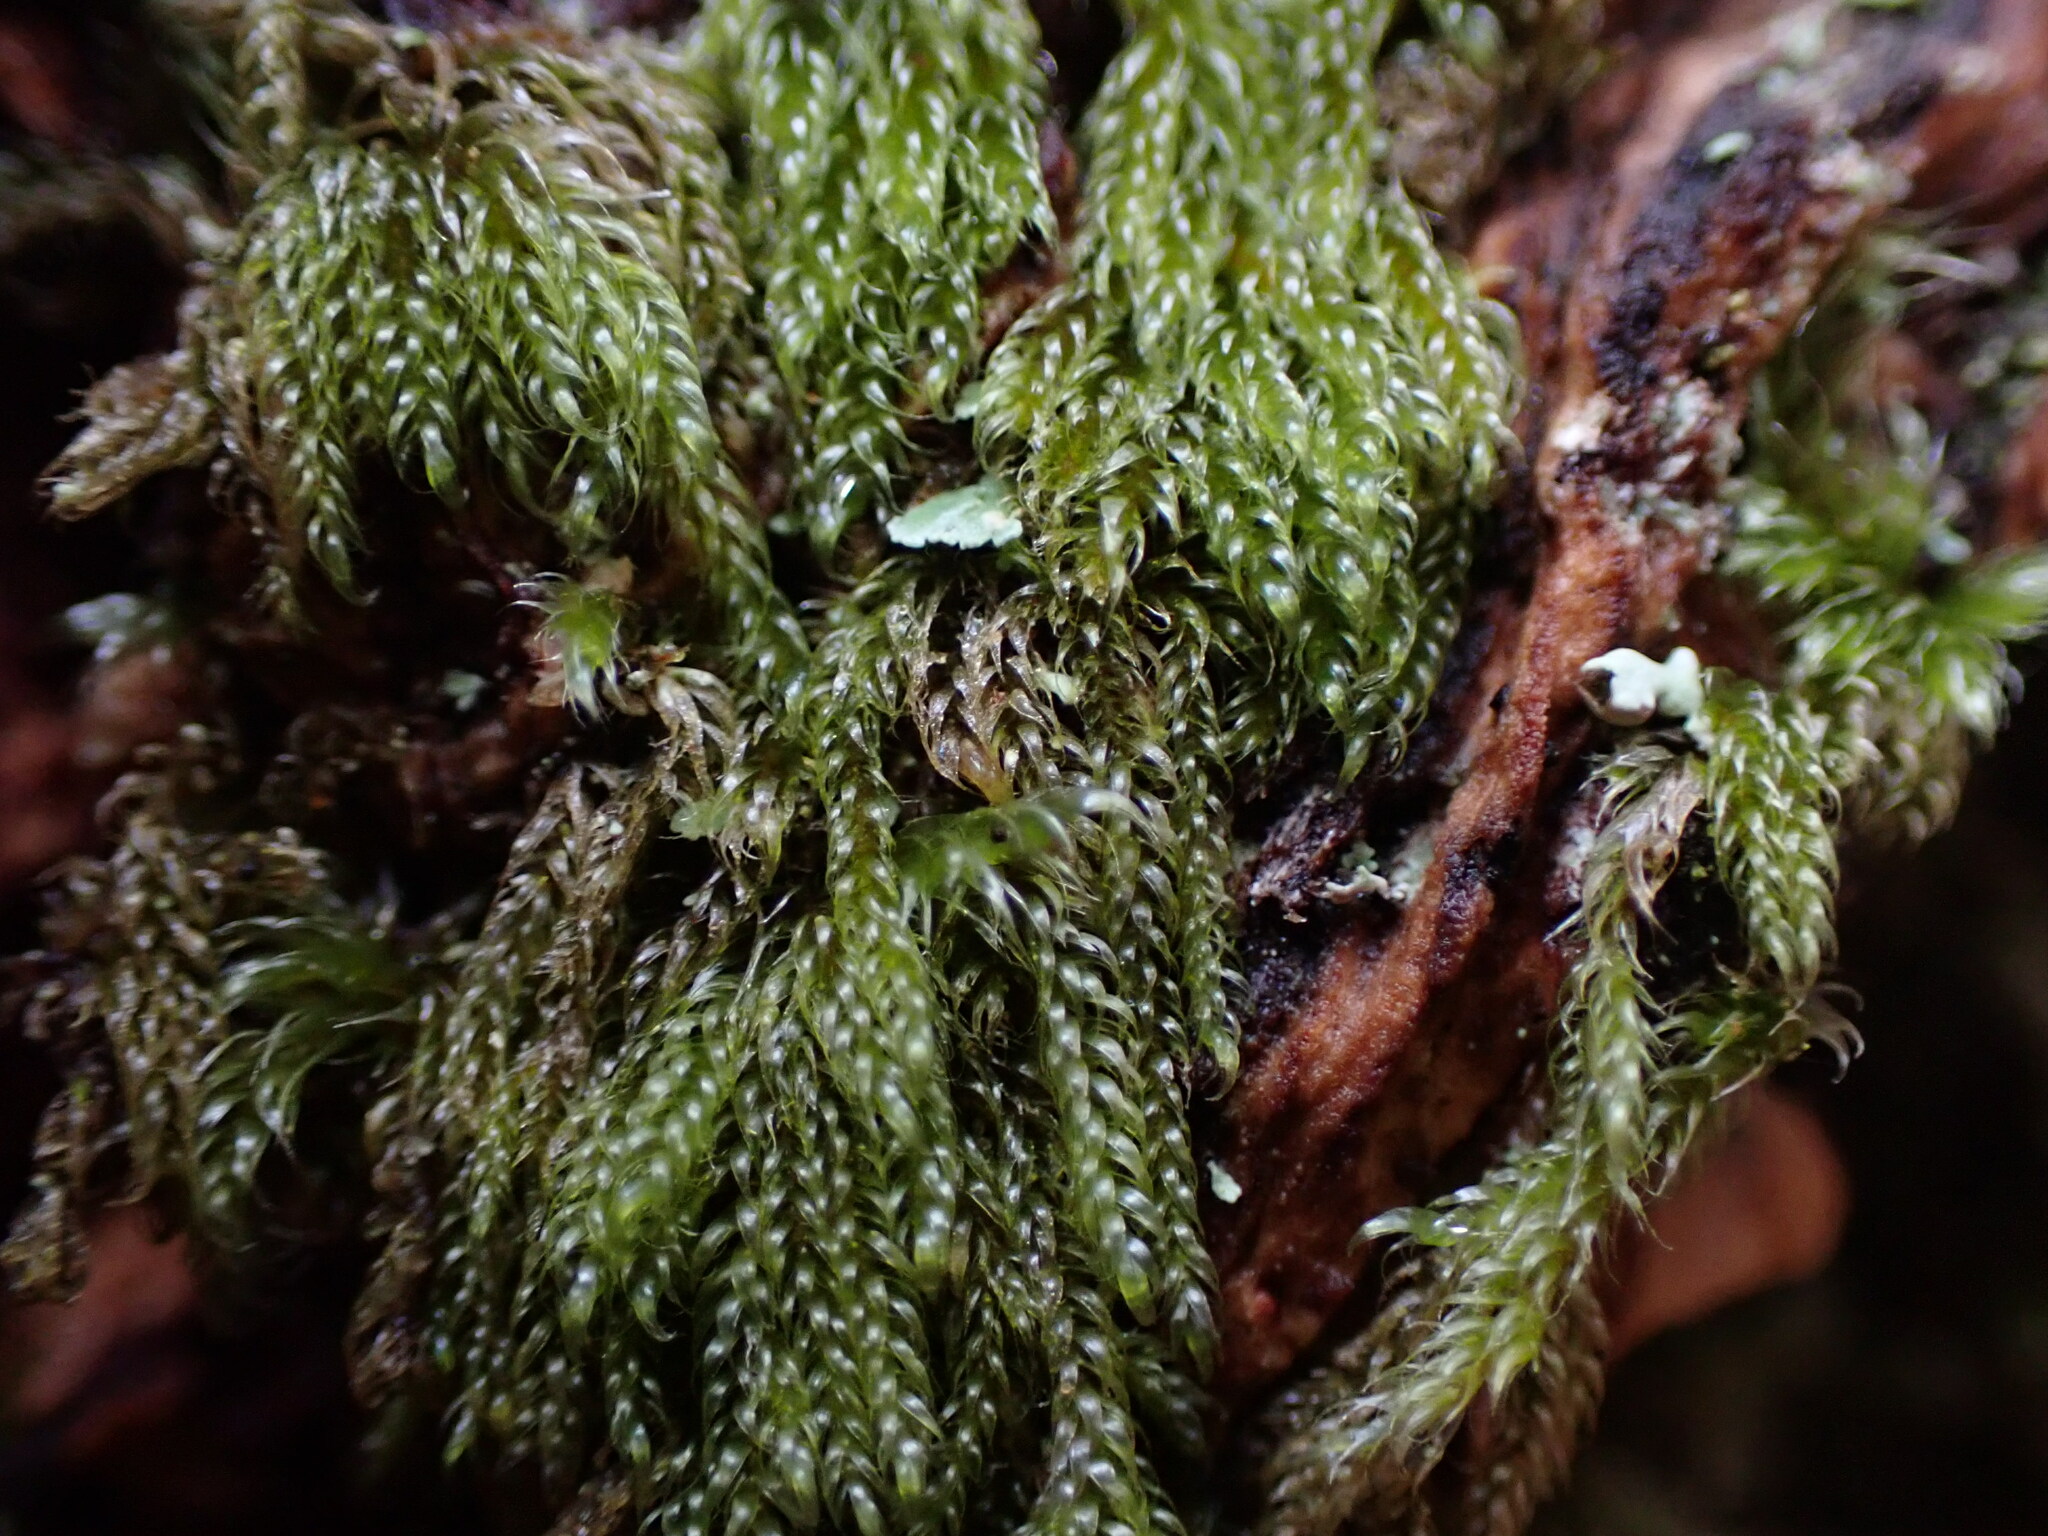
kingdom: Plantae
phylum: Bryophyta
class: Bryopsida
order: Hypnales
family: Pylaisiadelphaceae
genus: Trochophyllohypnum
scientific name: Trochophyllohypnum circinale
